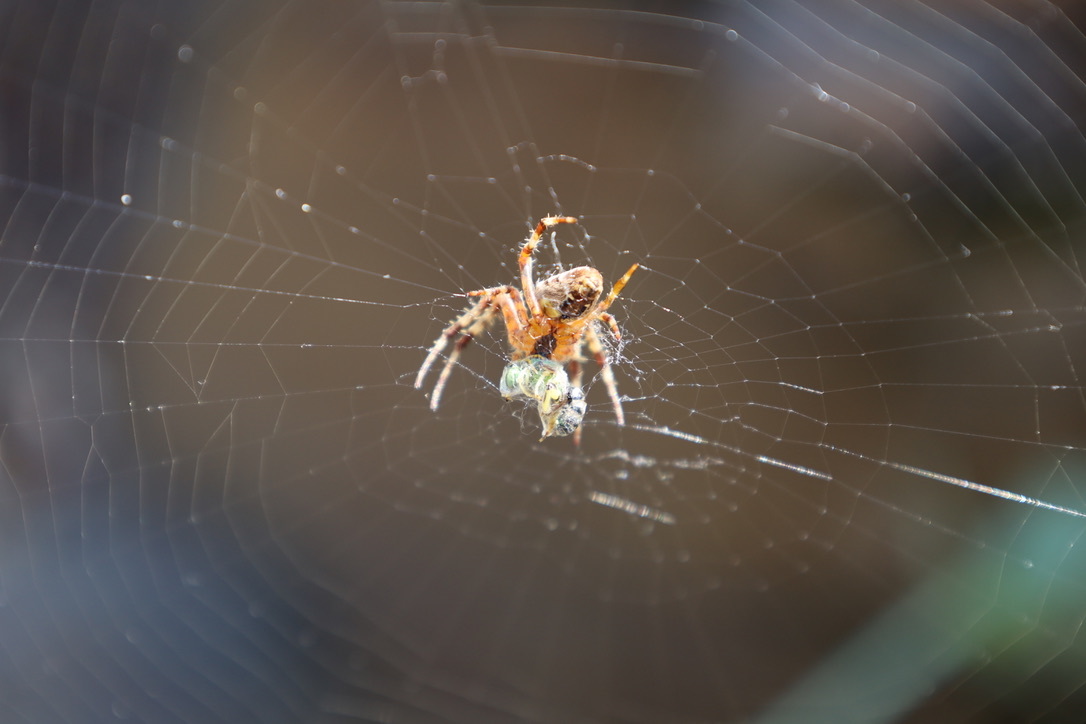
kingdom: Animalia
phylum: Arthropoda
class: Arachnida
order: Araneae
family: Araneidae
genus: Araneus
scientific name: Araneus diadematus
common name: Cross orbweaver
